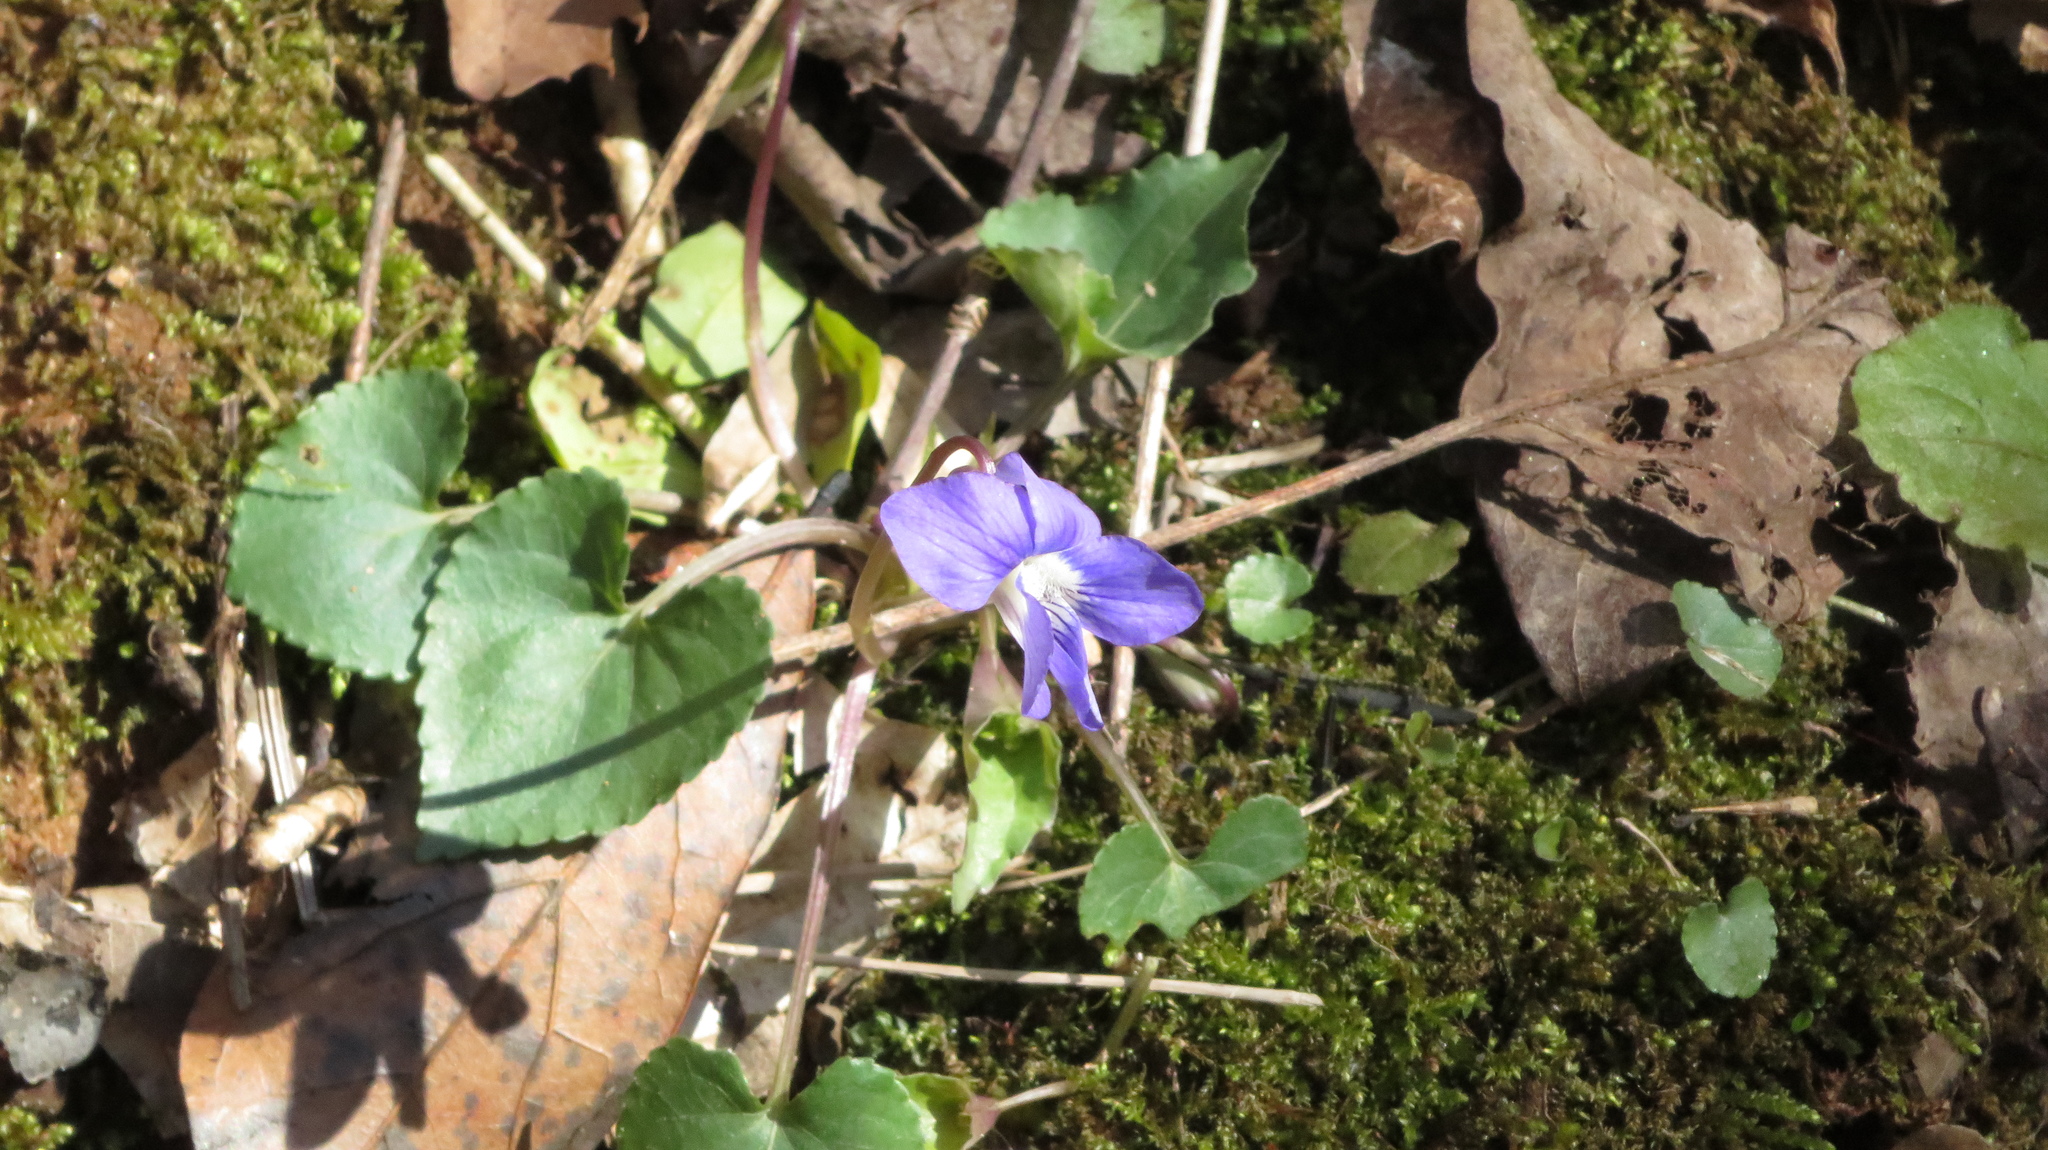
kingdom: Plantae
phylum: Tracheophyta
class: Magnoliopsida
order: Malpighiales
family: Violaceae
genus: Viola
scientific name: Viola sororia
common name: Dooryard violet
